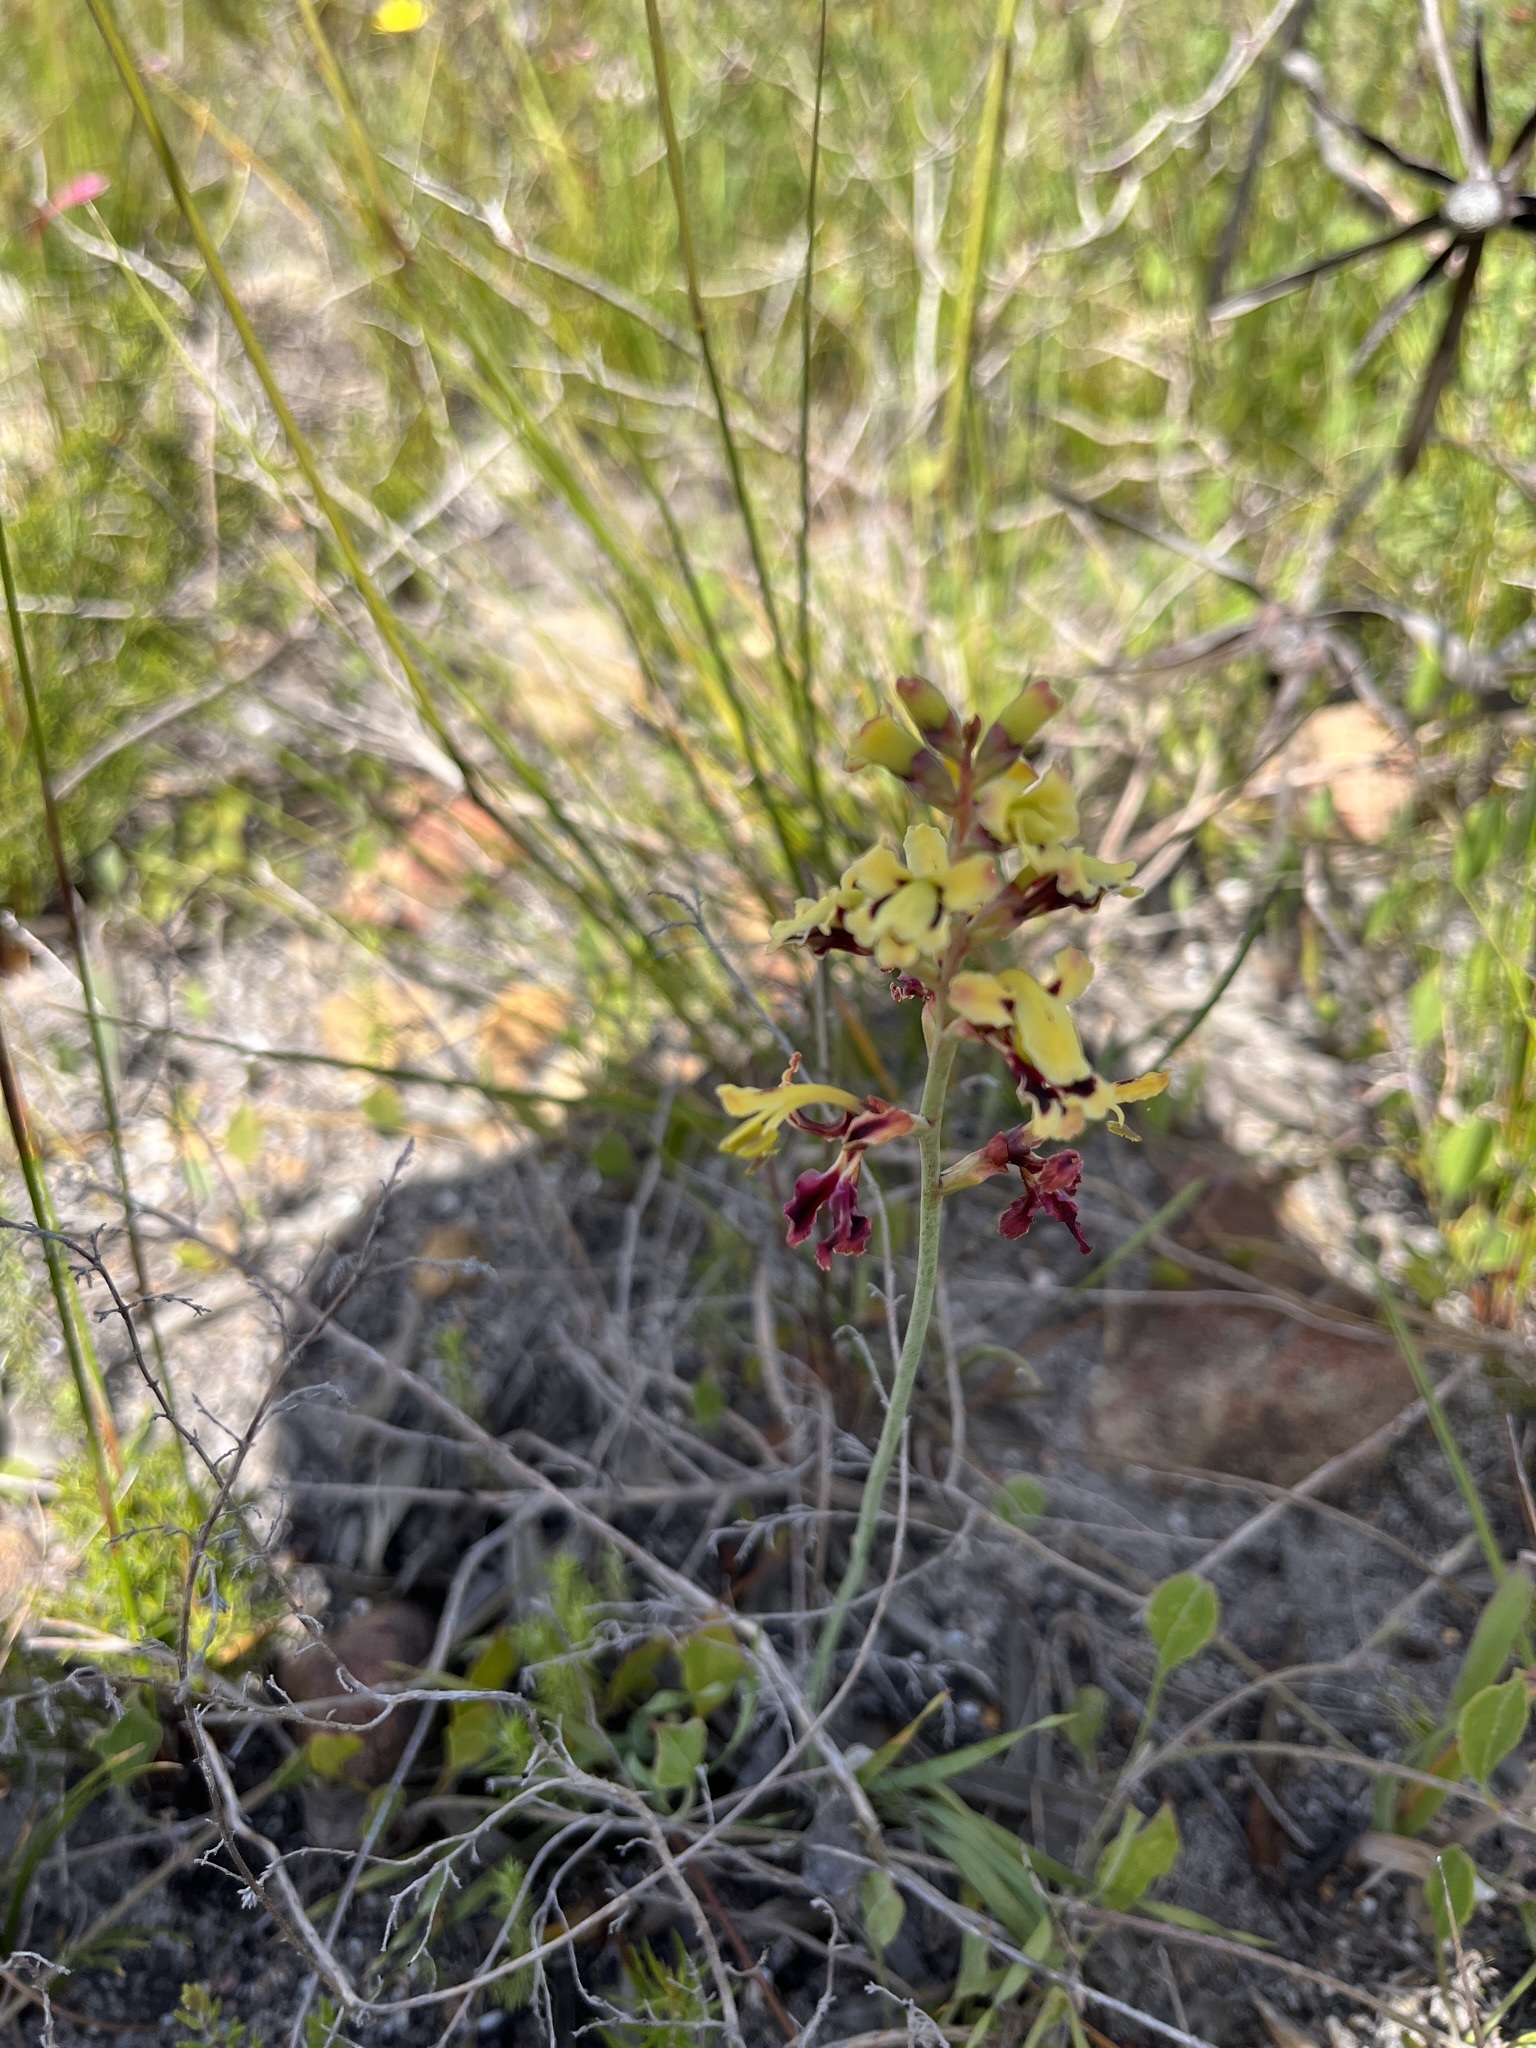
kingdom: Plantae
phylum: Tracheophyta
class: Liliopsida
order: Asparagales
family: Iridaceae
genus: Tritoniopsis
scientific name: Tritoniopsis parviflora
